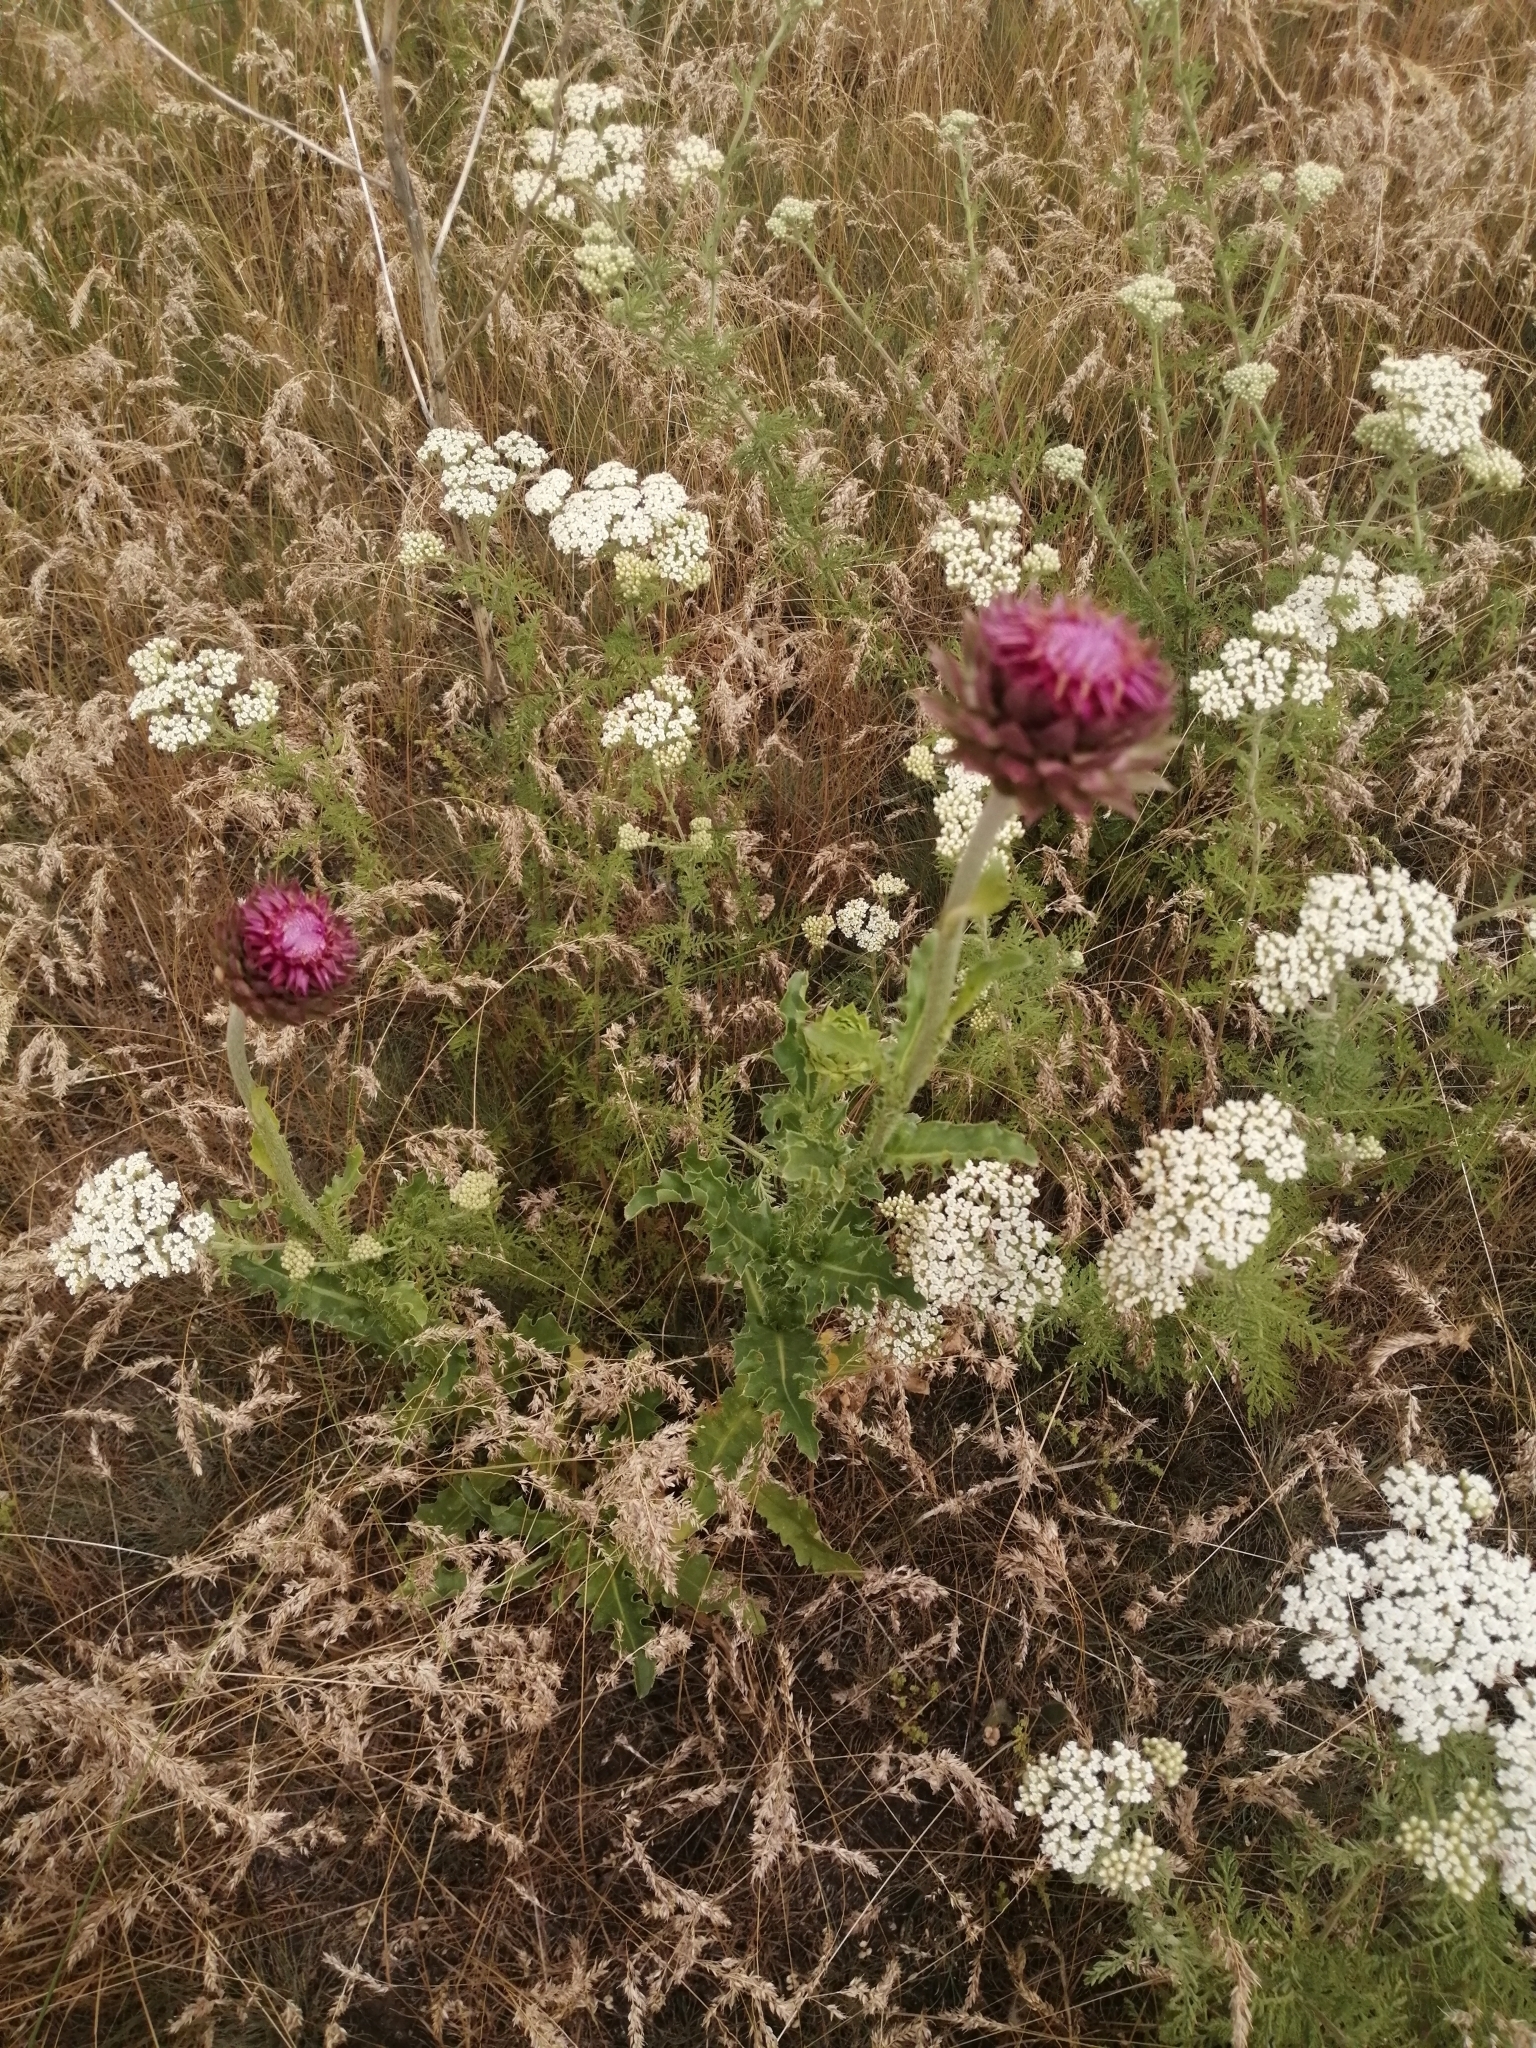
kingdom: Plantae
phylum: Tracheophyta
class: Magnoliopsida
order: Asterales
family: Asteraceae
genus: Carduus
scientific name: Carduus nutans
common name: Musk thistle
